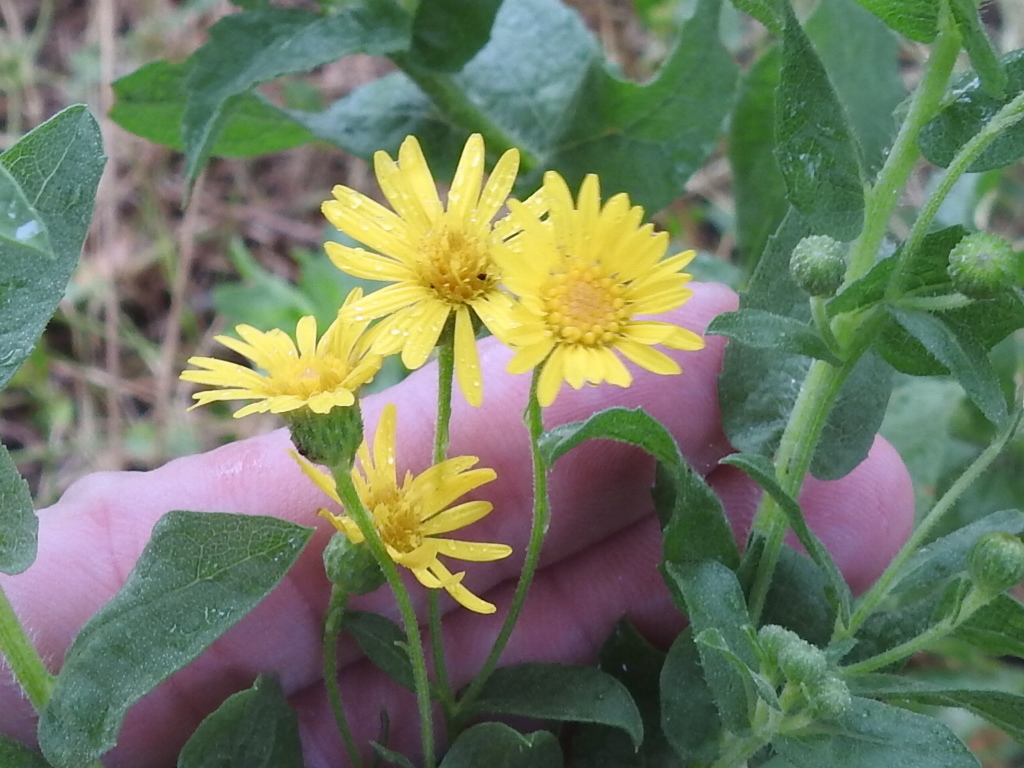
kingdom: Plantae
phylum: Tracheophyta
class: Magnoliopsida
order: Asterales
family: Asteraceae
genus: Heterotheca
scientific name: Heterotheca subaxillaris
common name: Camphorweed
